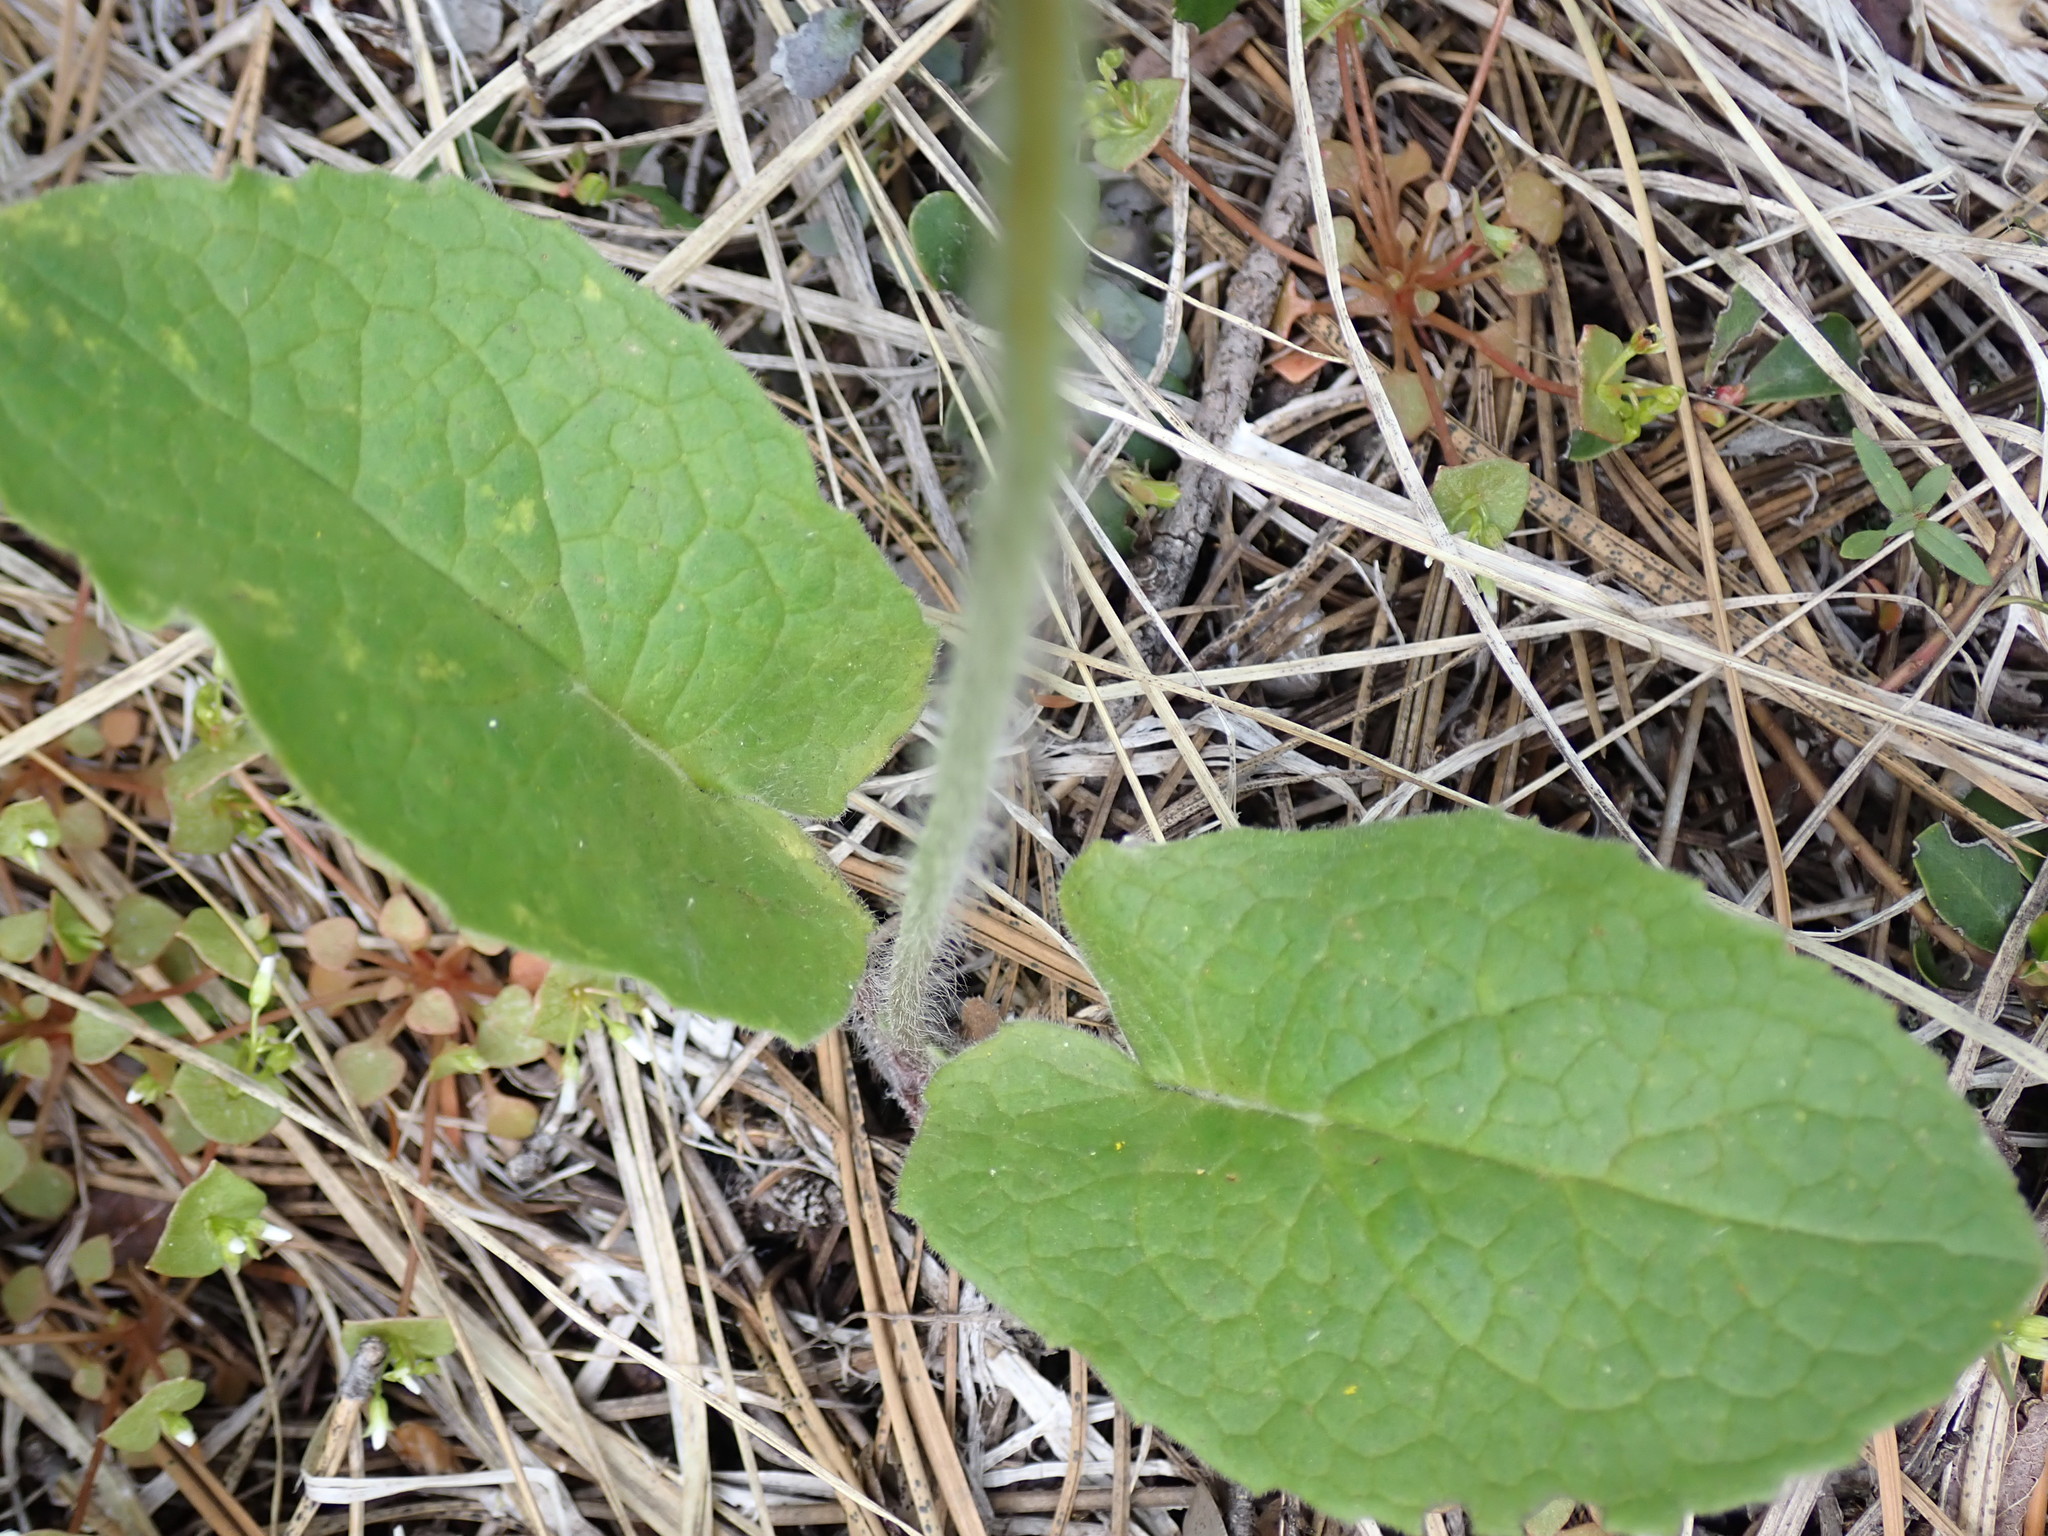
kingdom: Plantae
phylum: Tracheophyta
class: Magnoliopsida
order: Asterales
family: Asteraceae
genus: Arnica
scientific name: Arnica cordifolia
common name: Heart-leaf arnica
